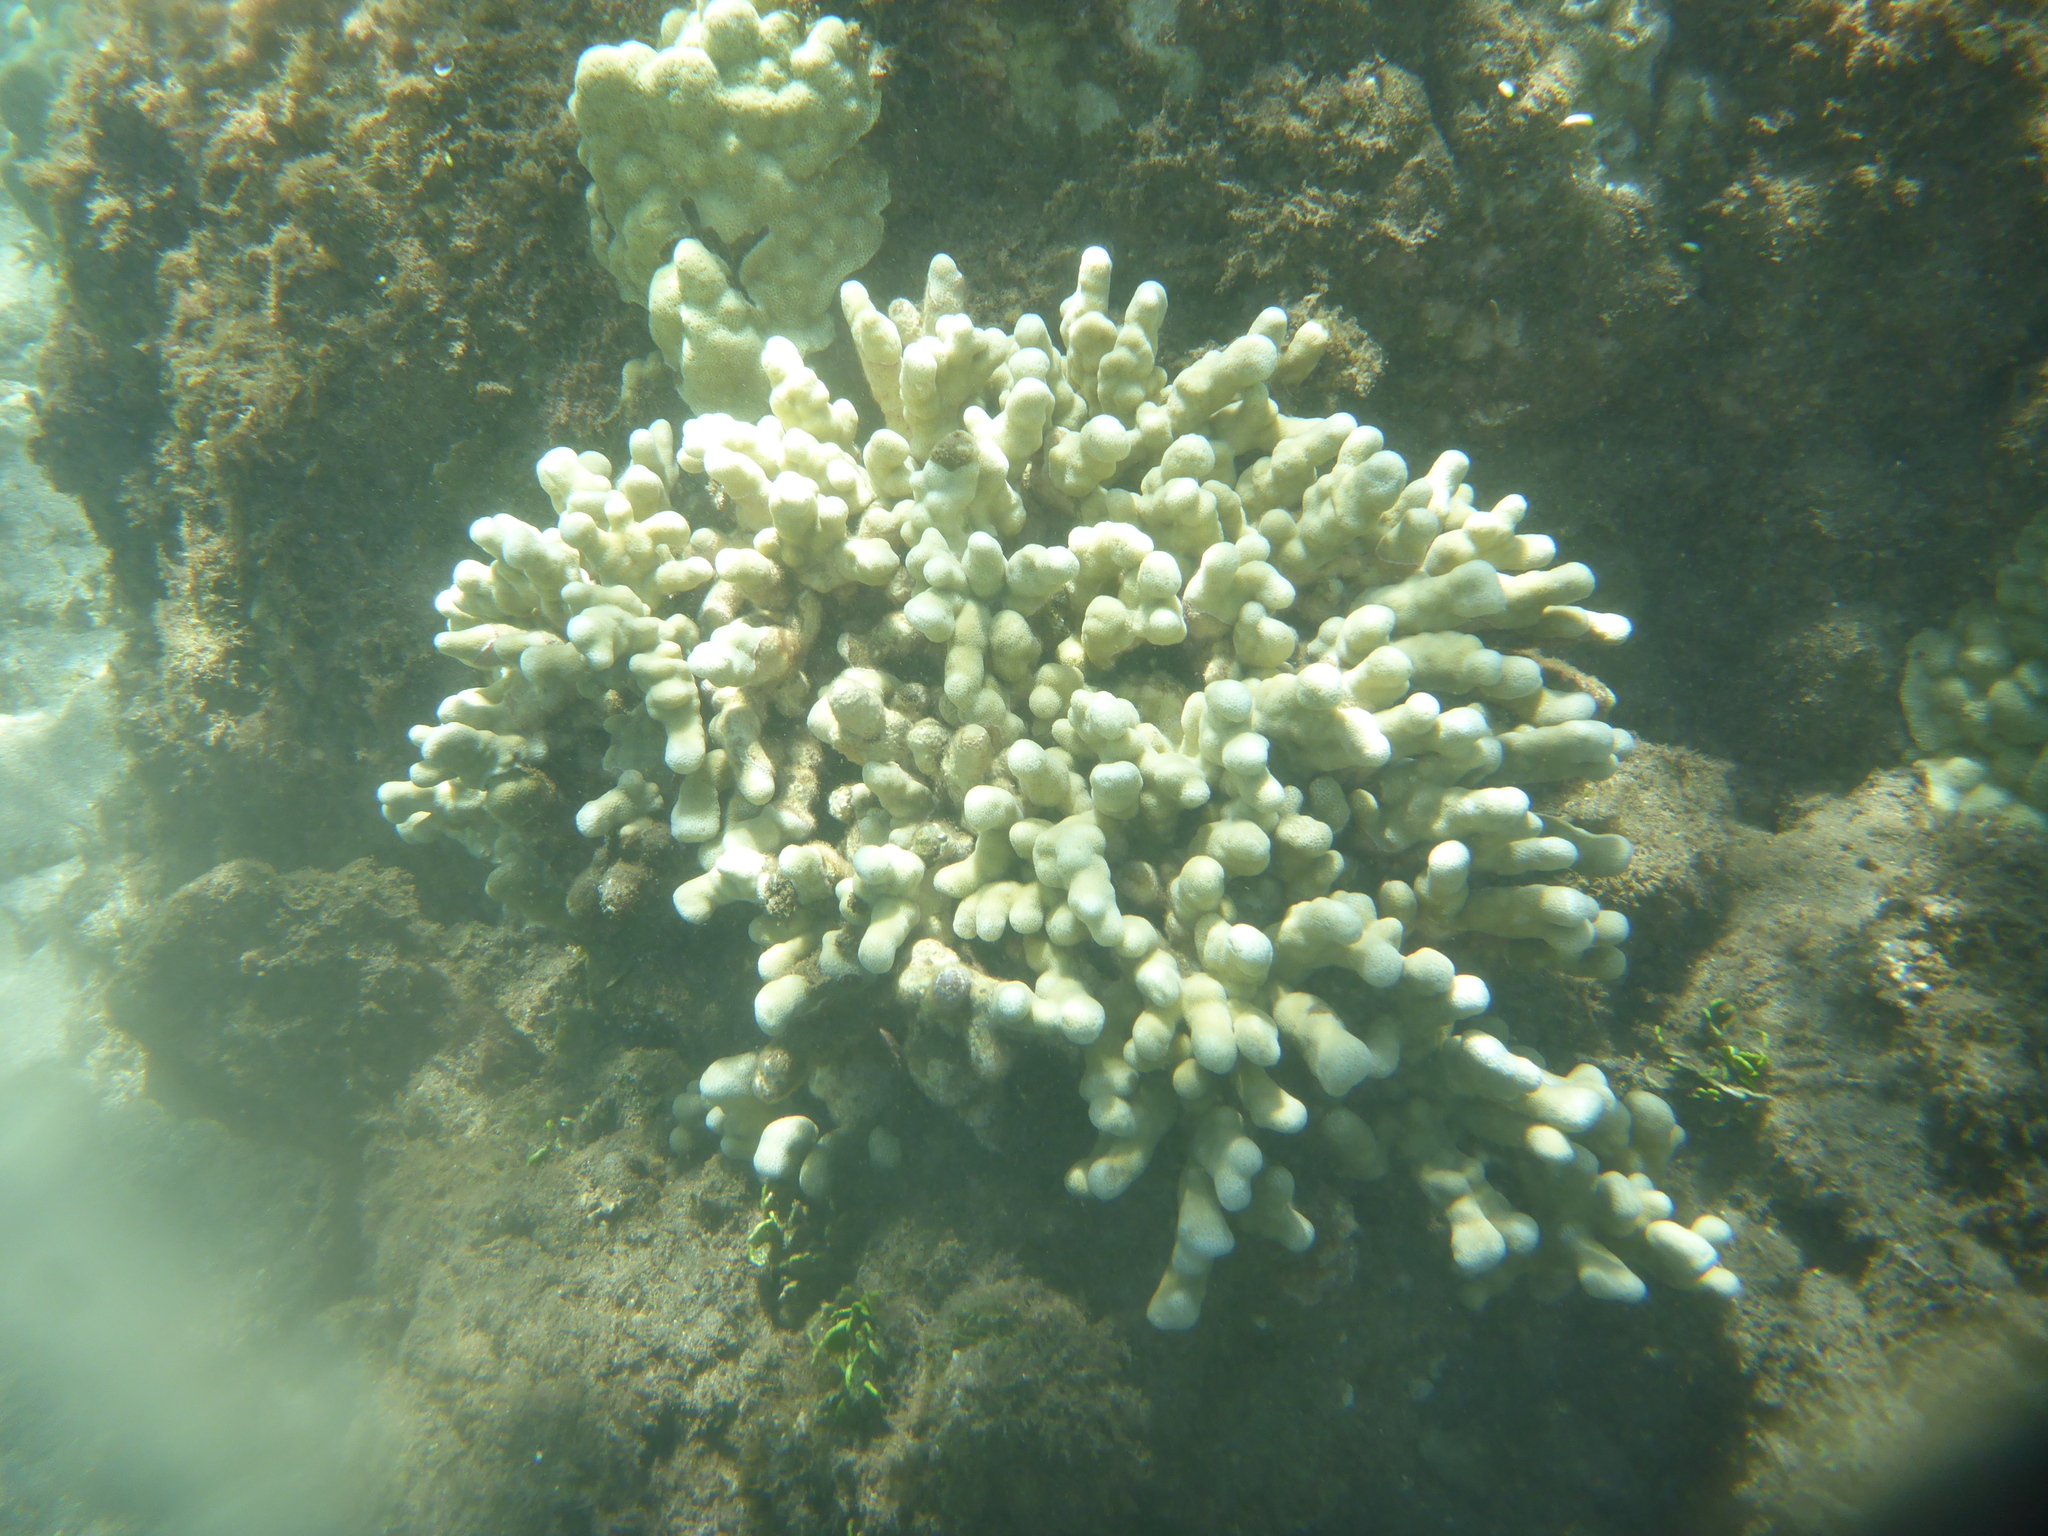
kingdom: Animalia
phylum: Cnidaria
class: Anthozoa
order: Scleractinia
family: Poritidae
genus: Porites
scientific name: Porites compressa
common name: Hump coral
